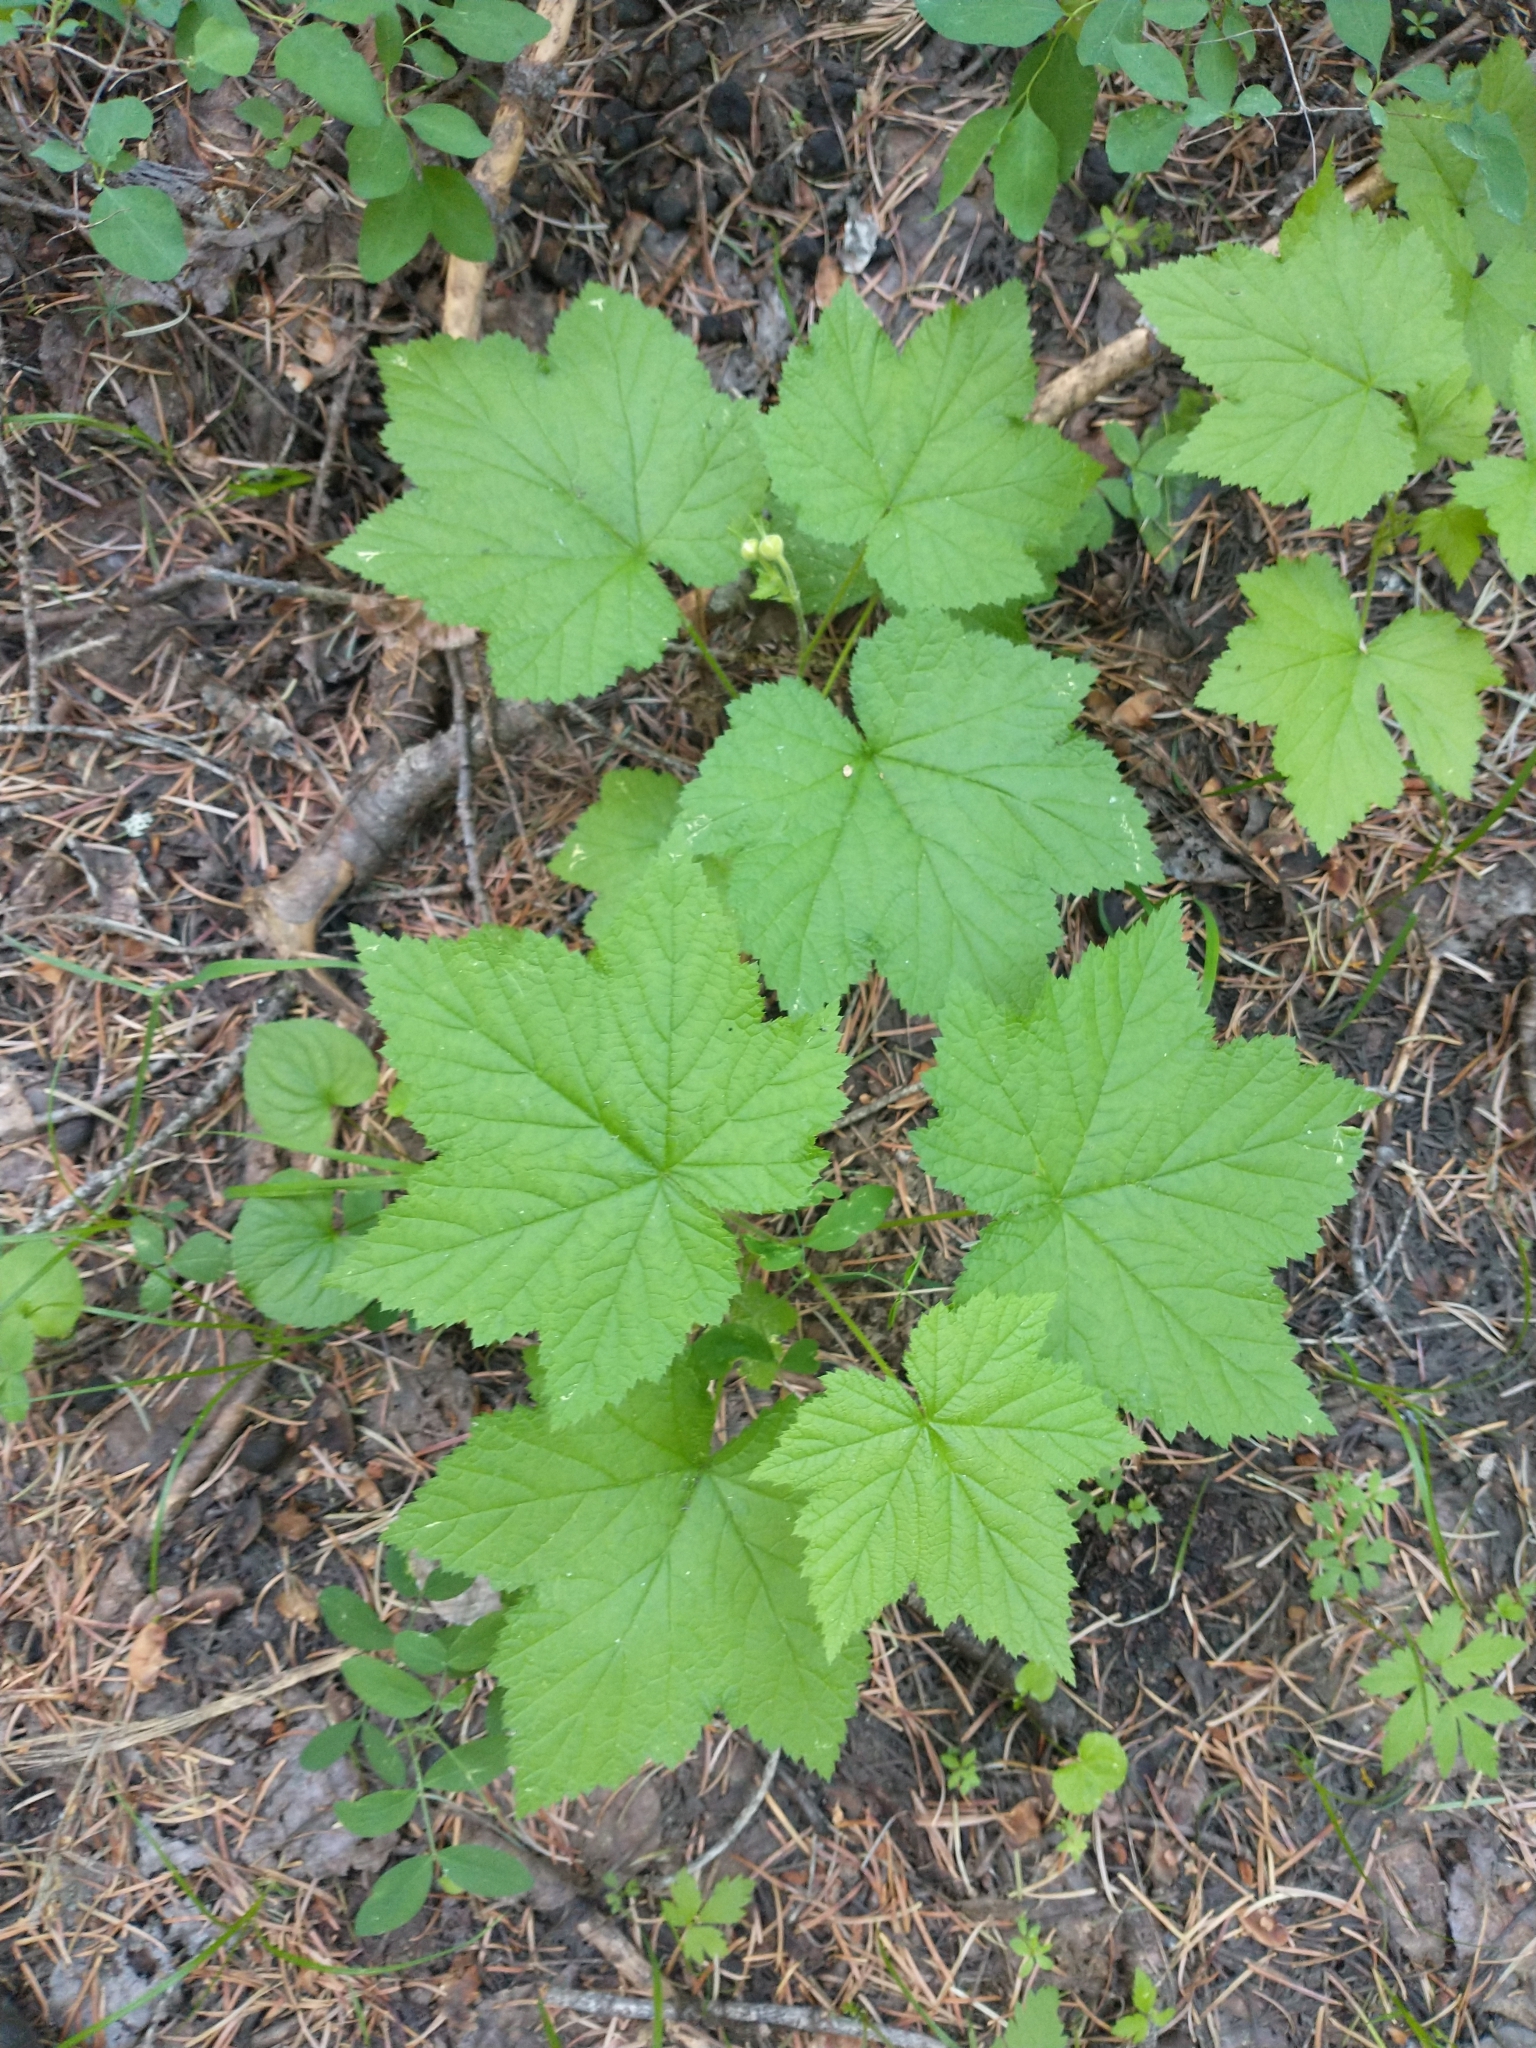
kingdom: Plantae
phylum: Tracheophyta
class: Magnoliopsida
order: Rosales
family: Rosaceae
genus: Rubus
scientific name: Rubus parviflorus
